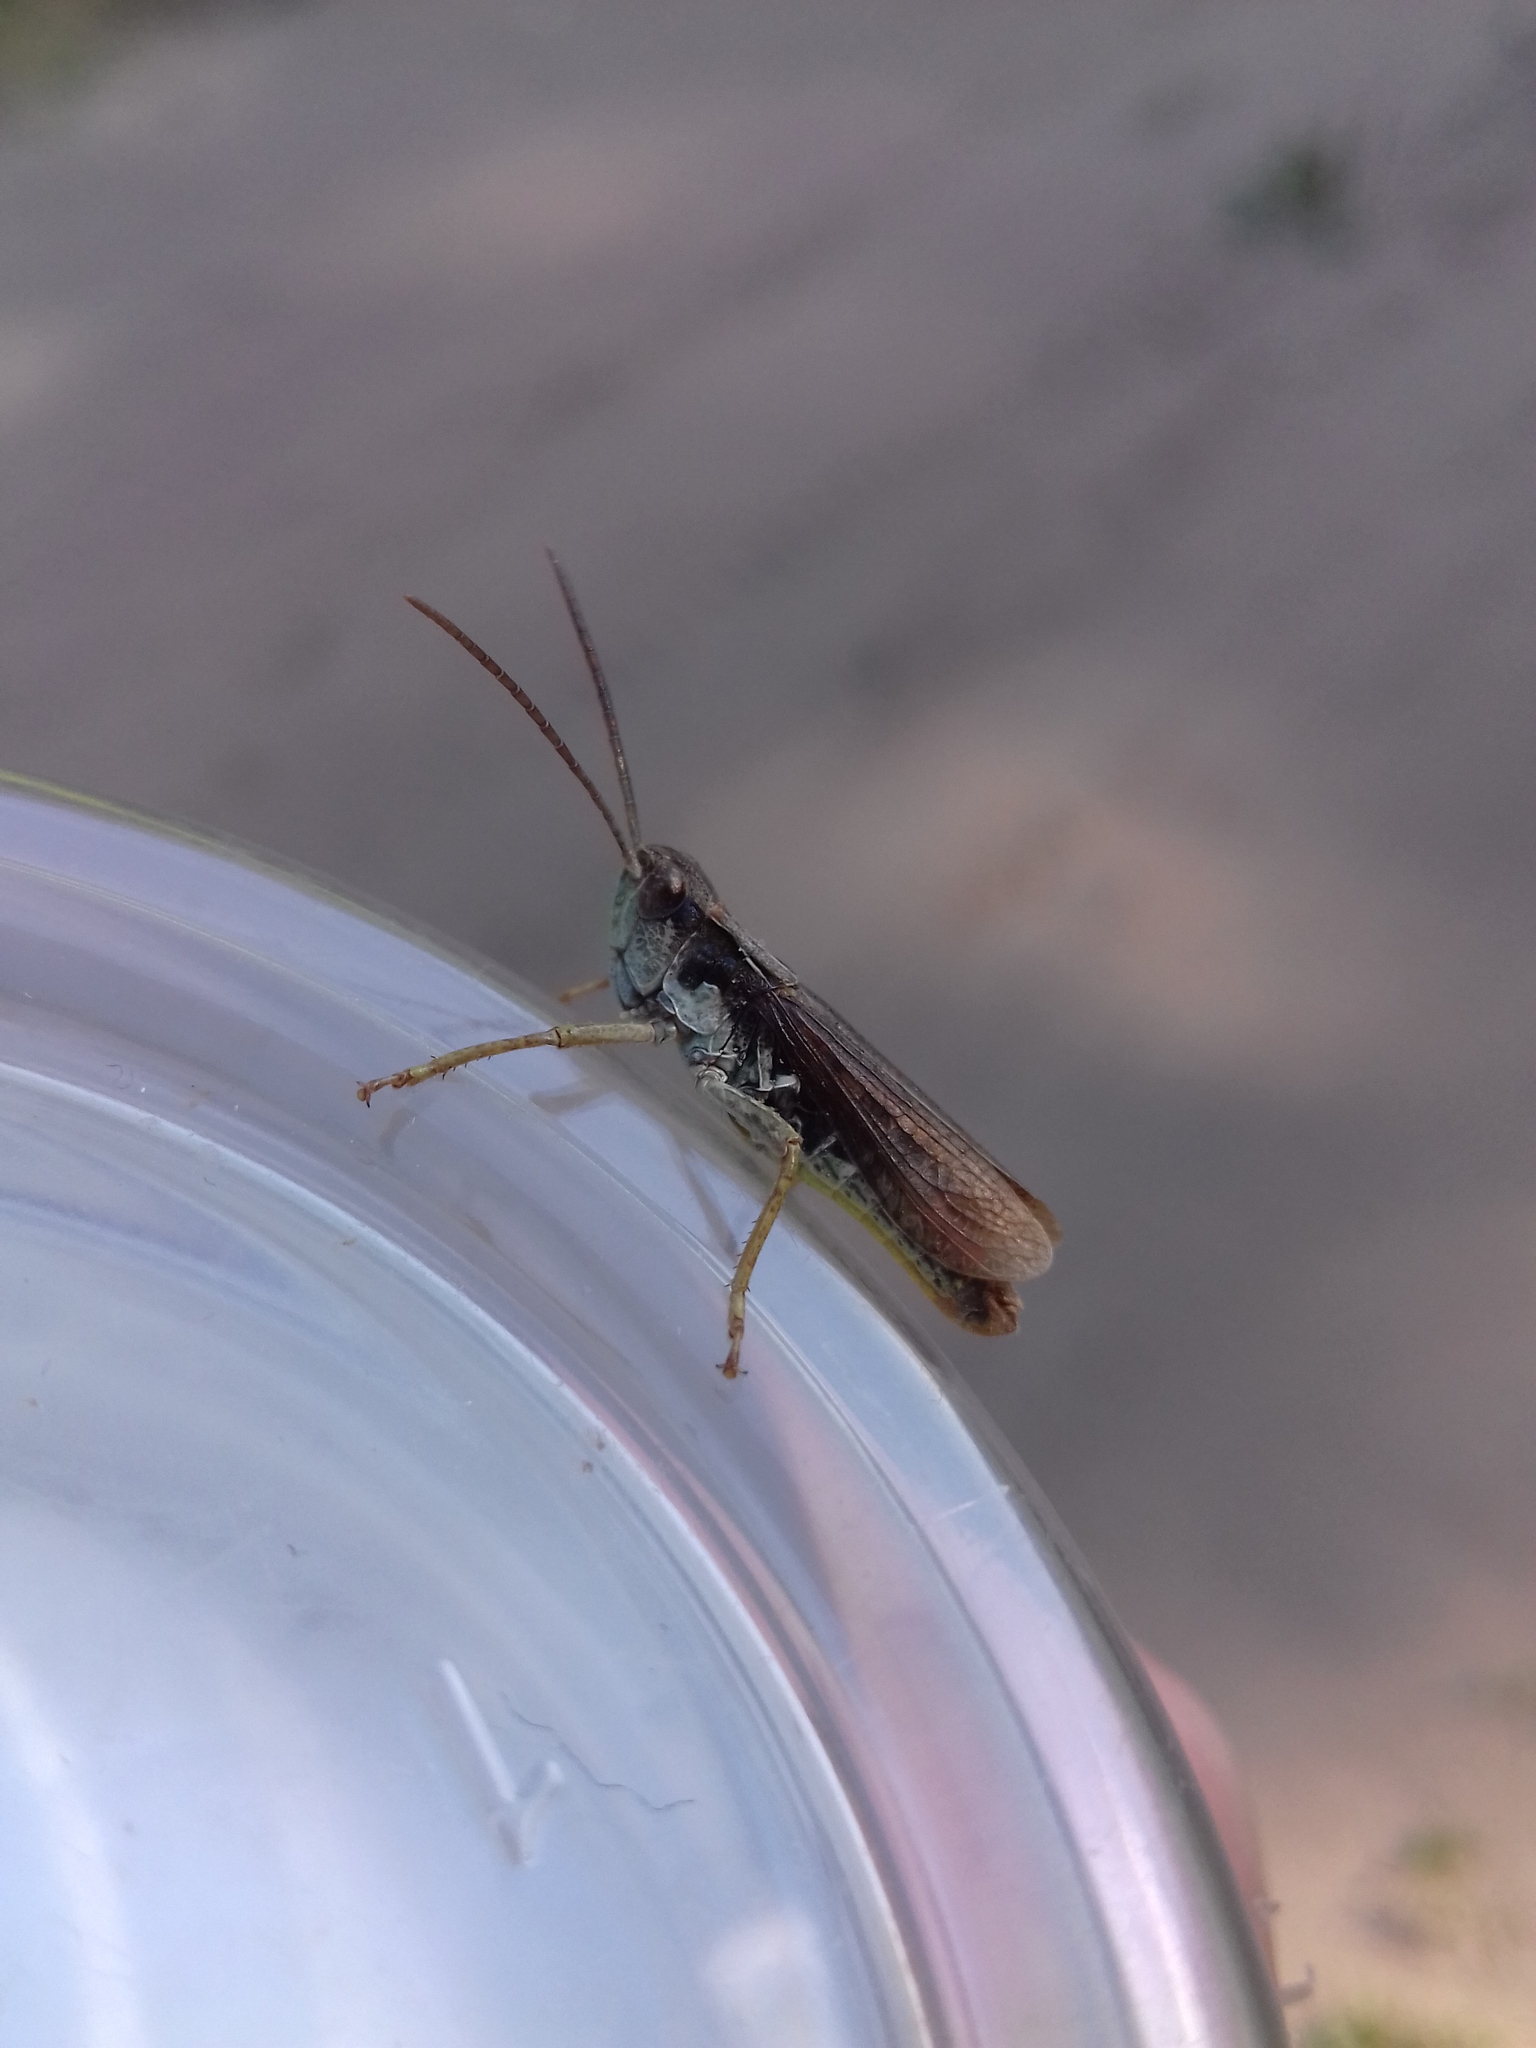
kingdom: Animalia
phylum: Arthropoda
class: Insecta
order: Orthoptera
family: Acrididae
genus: Chorthippus
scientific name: Chorthippus pullus
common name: Gravel grasshopper
